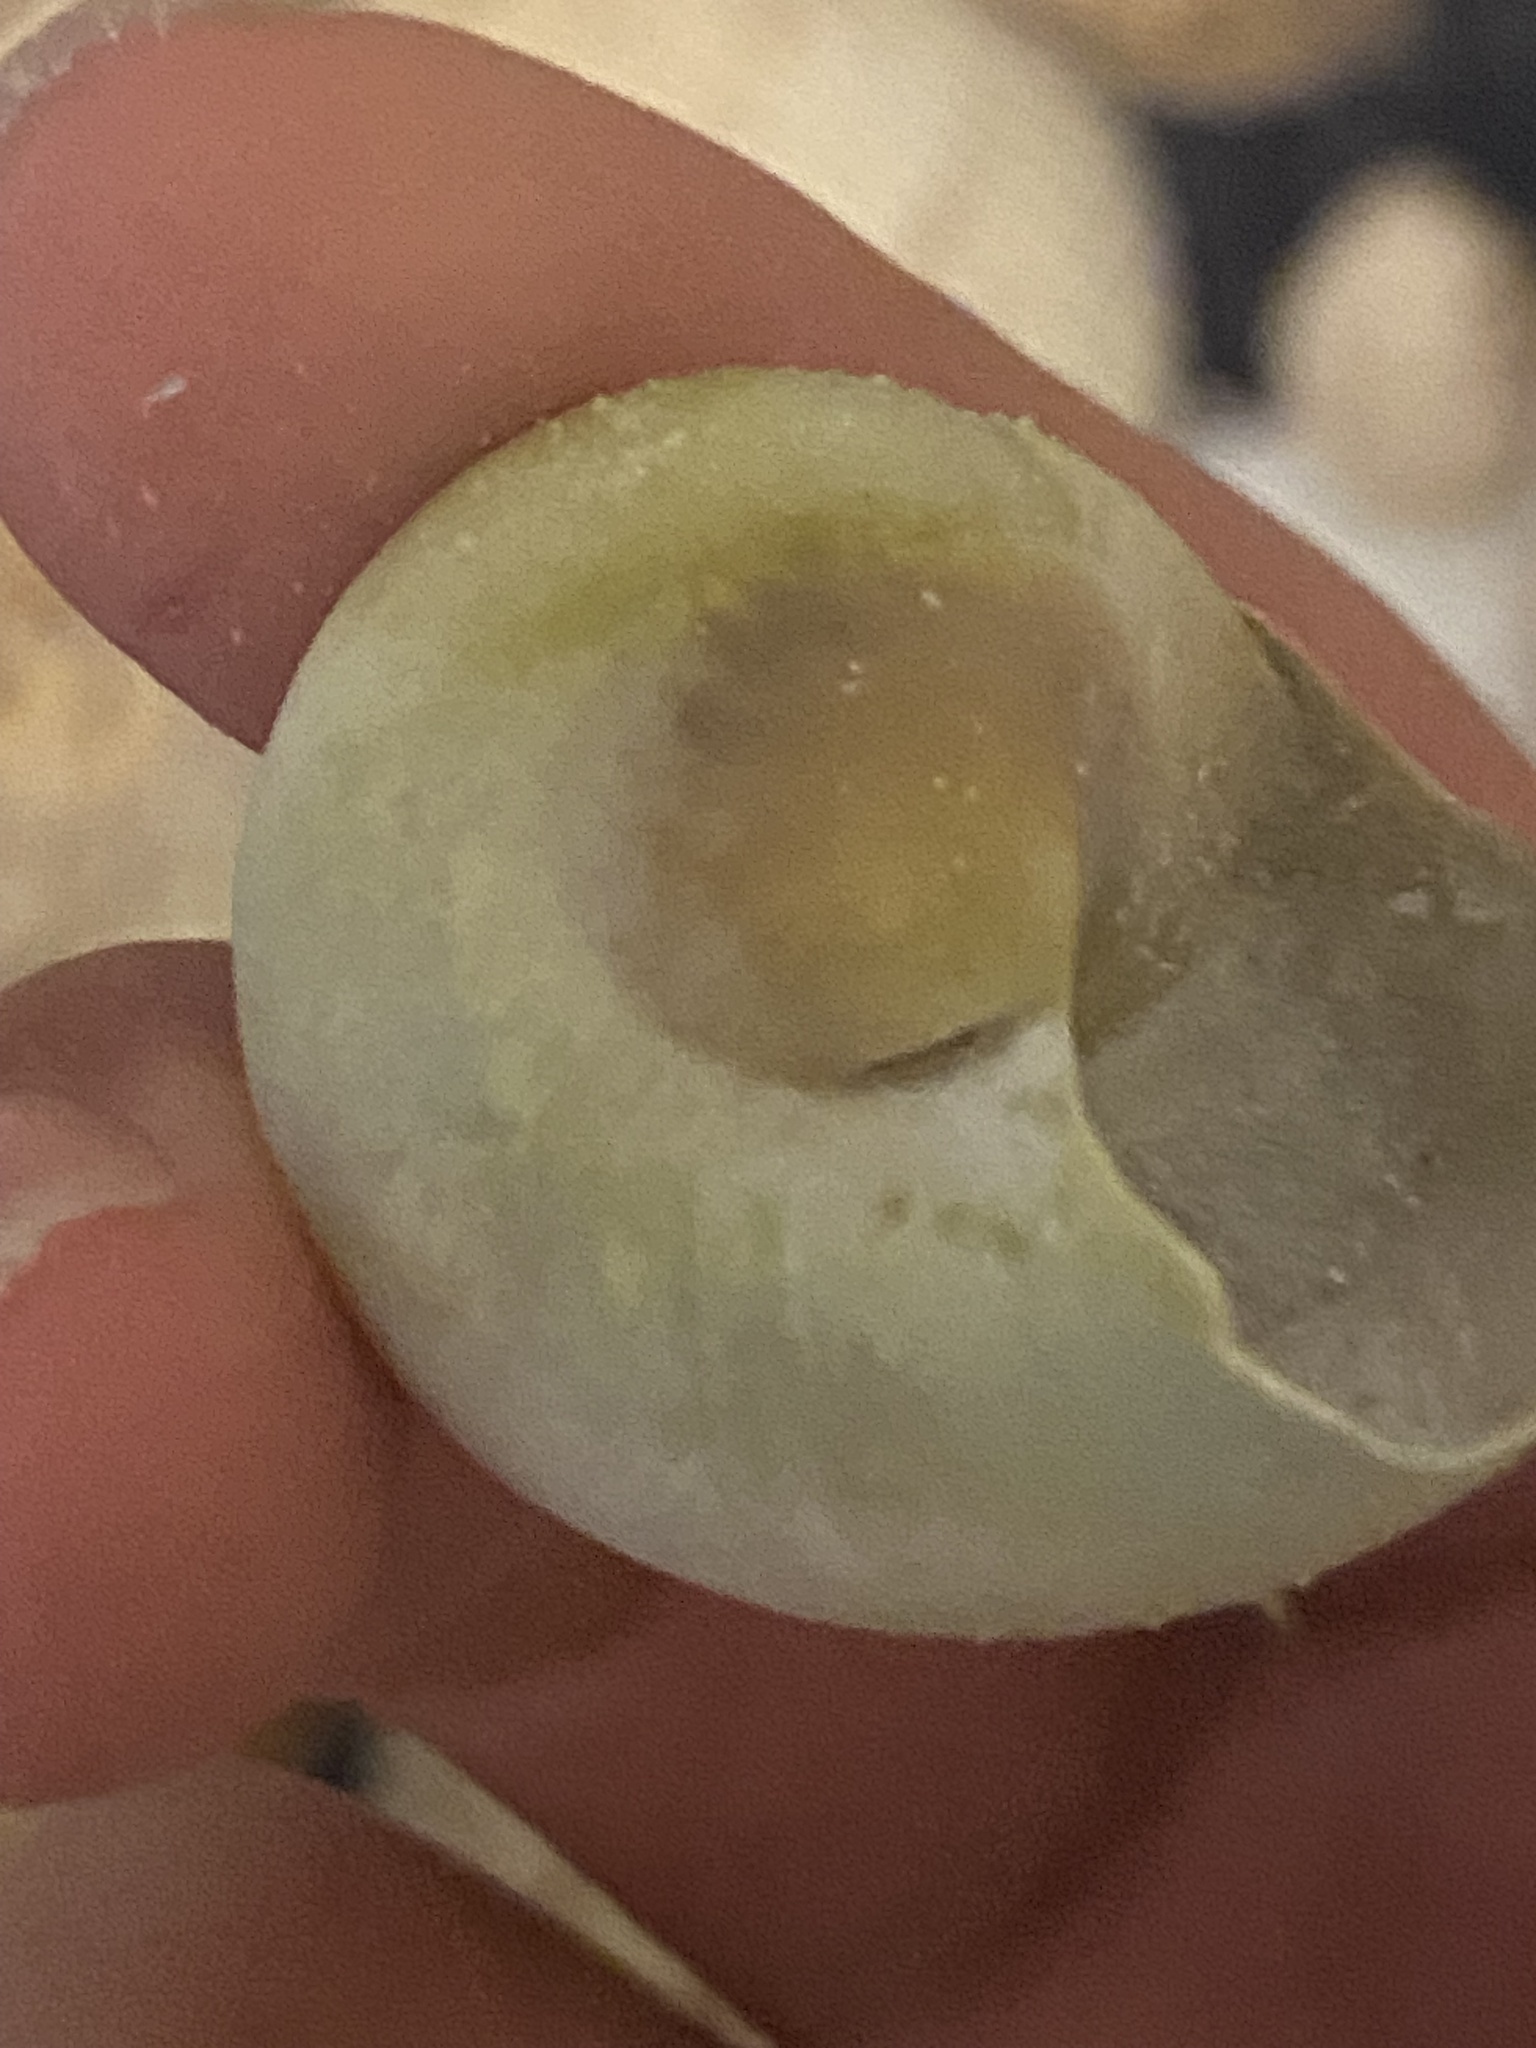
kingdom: Animalia
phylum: Mollusca
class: Gastropoda
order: Littorinimorpha
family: Naticidae
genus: Neverita
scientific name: Neverita duplicata
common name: Lobed moonsnail
